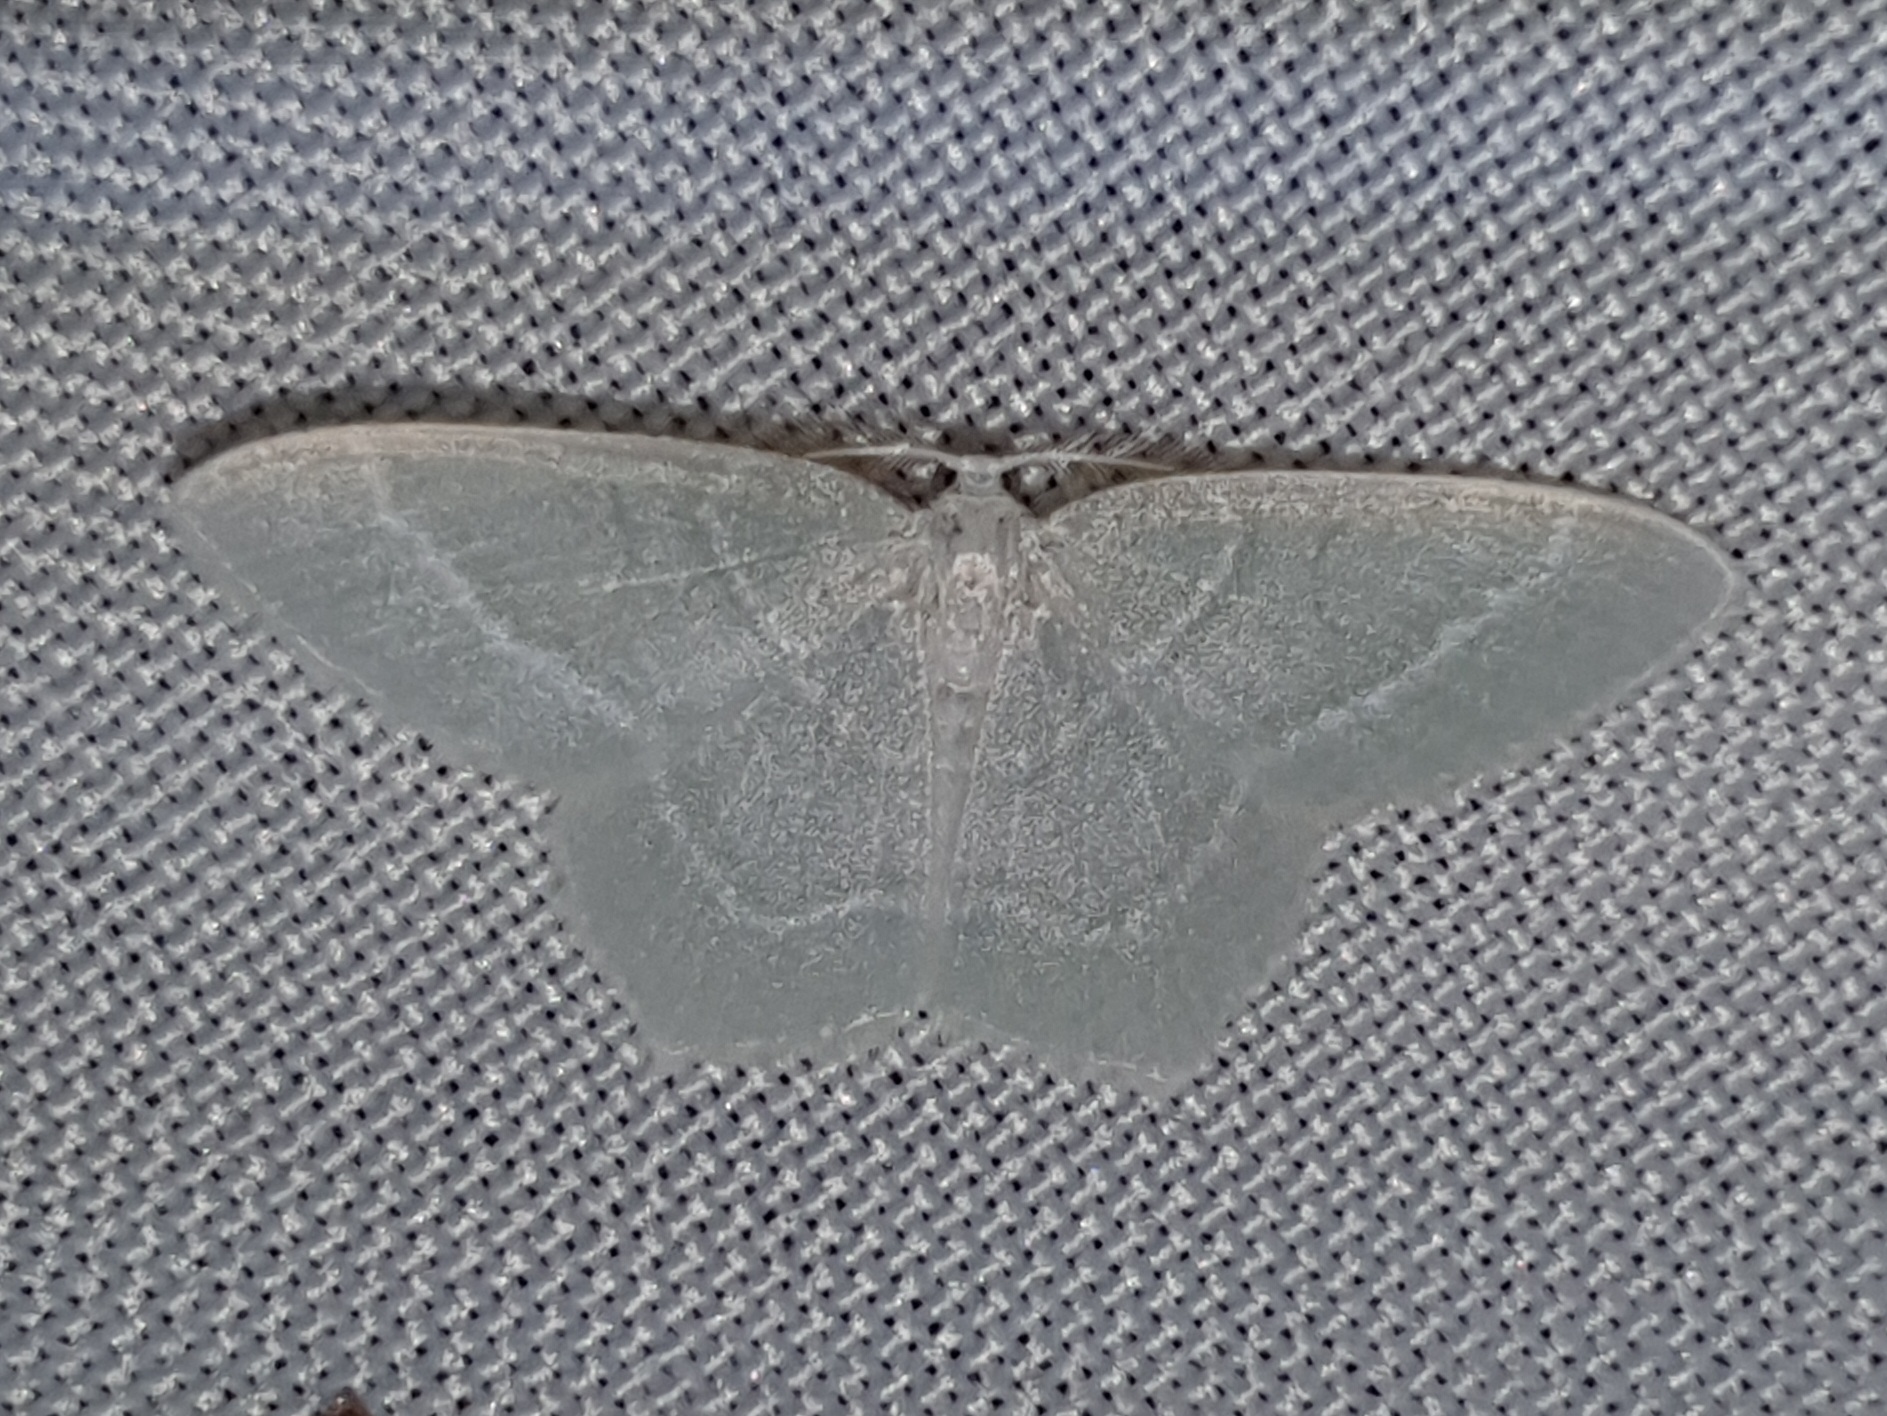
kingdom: Animalia
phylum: Arthropoda
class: Insecta
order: Lepidoptera
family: Geometridae
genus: Jodis
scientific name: Jodis lactearia
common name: Little emerald
